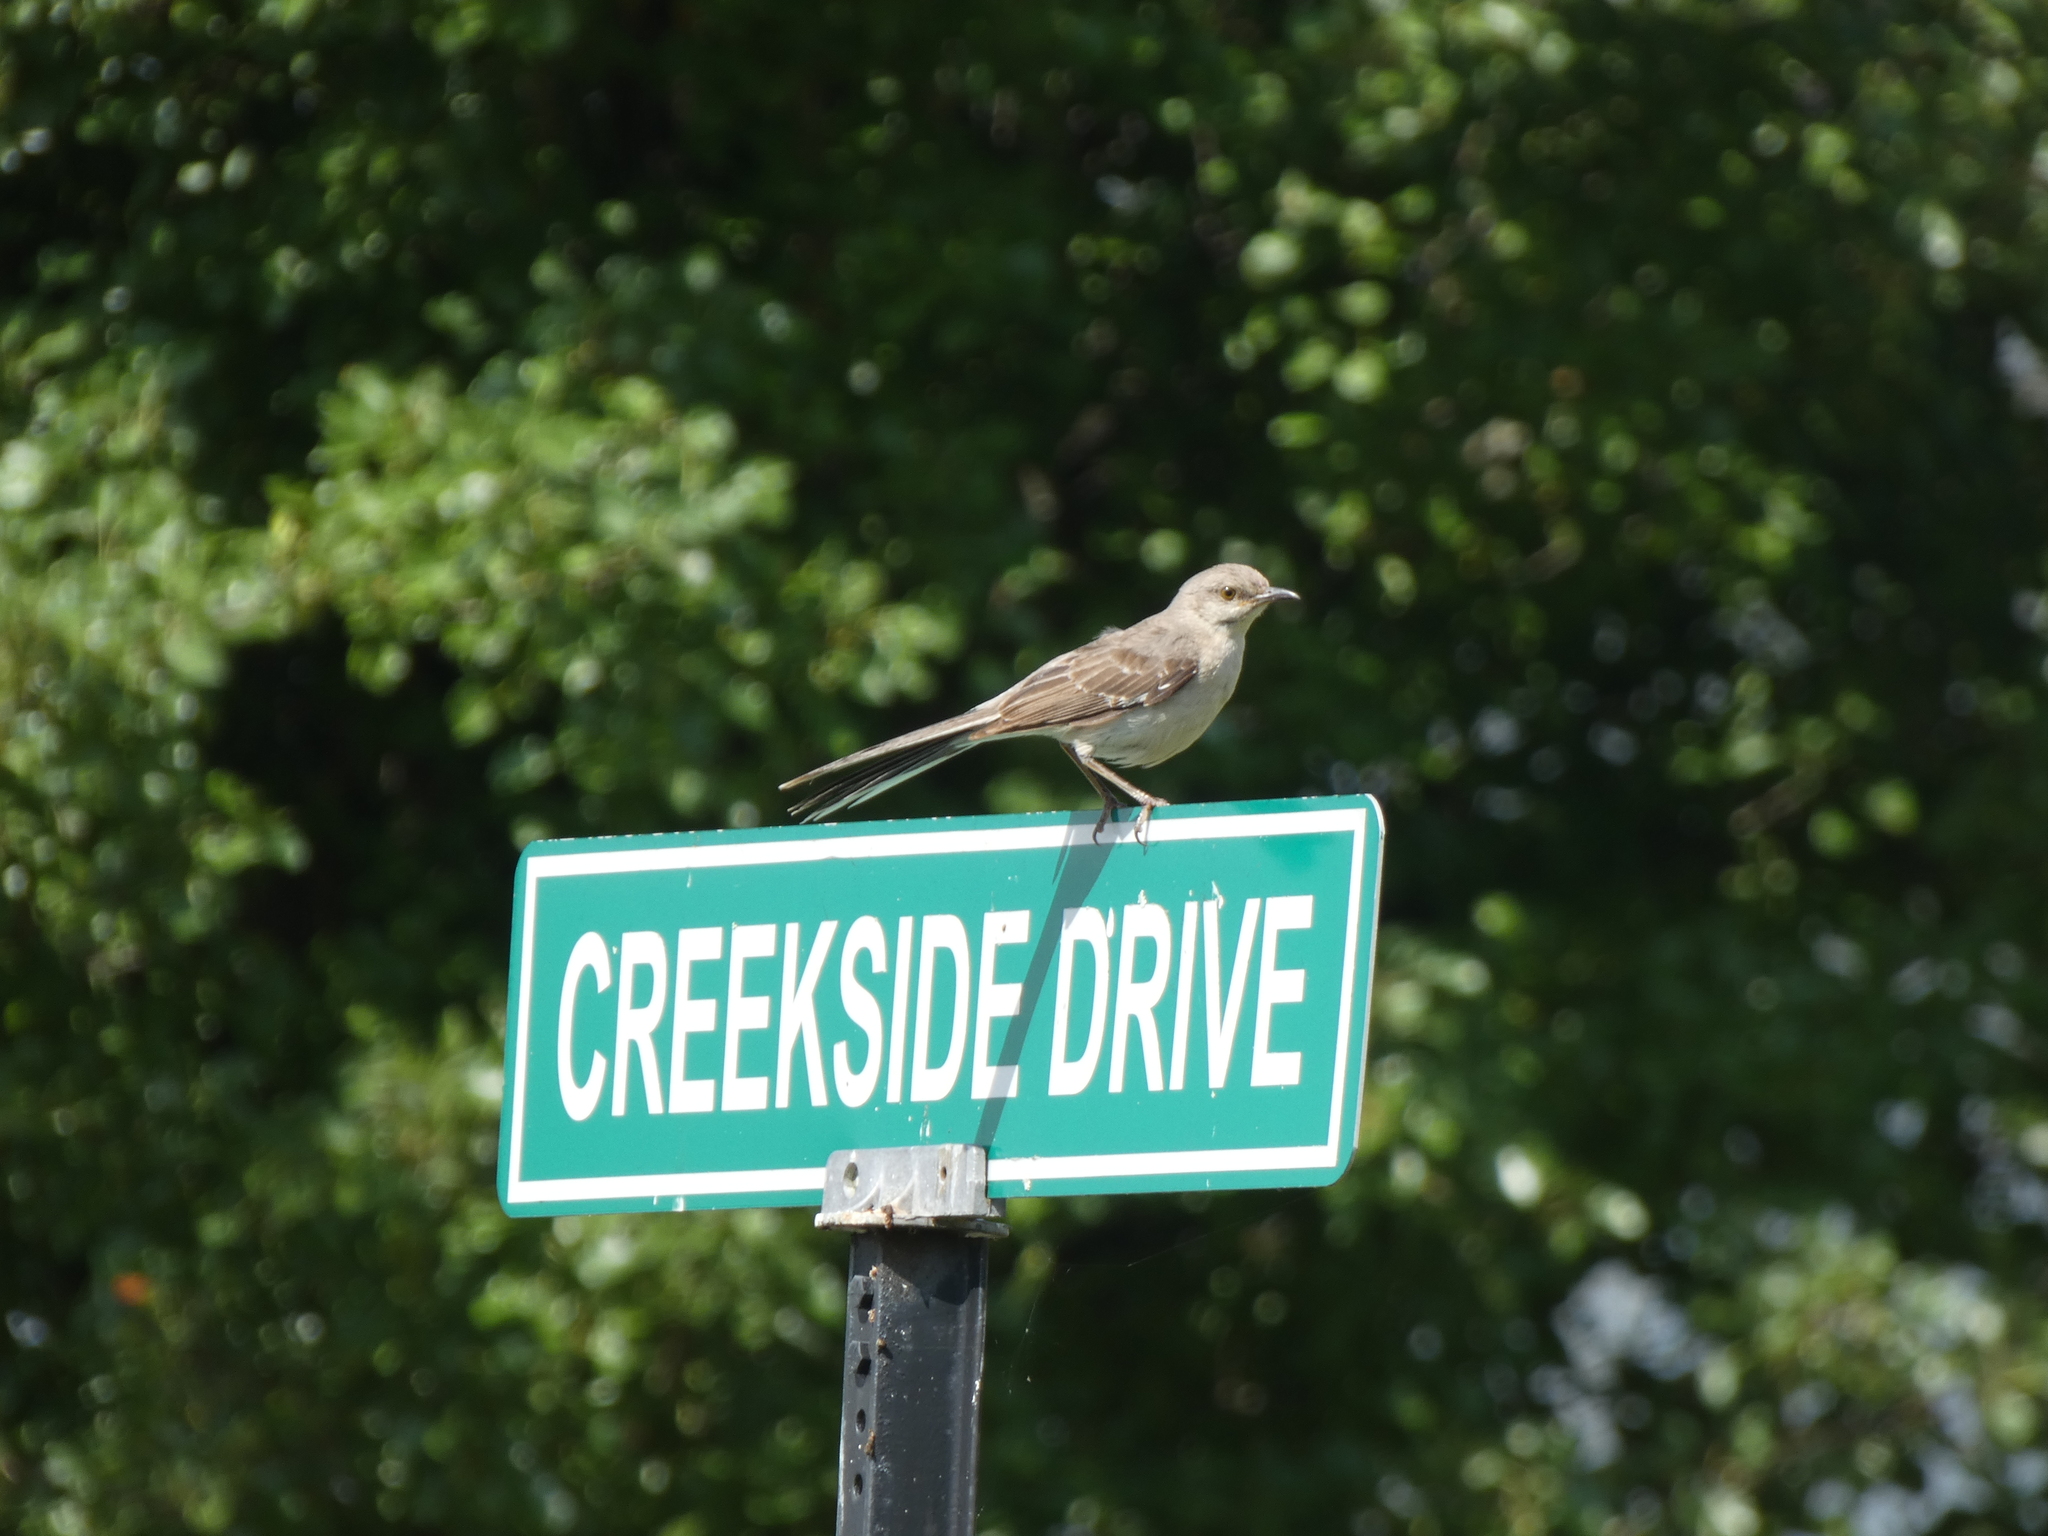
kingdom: Animalia
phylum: Chordata
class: Aves
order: Passeriformes
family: Mimidae
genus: Mimus
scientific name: Mimus polyglottos
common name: Northern mockingbird
